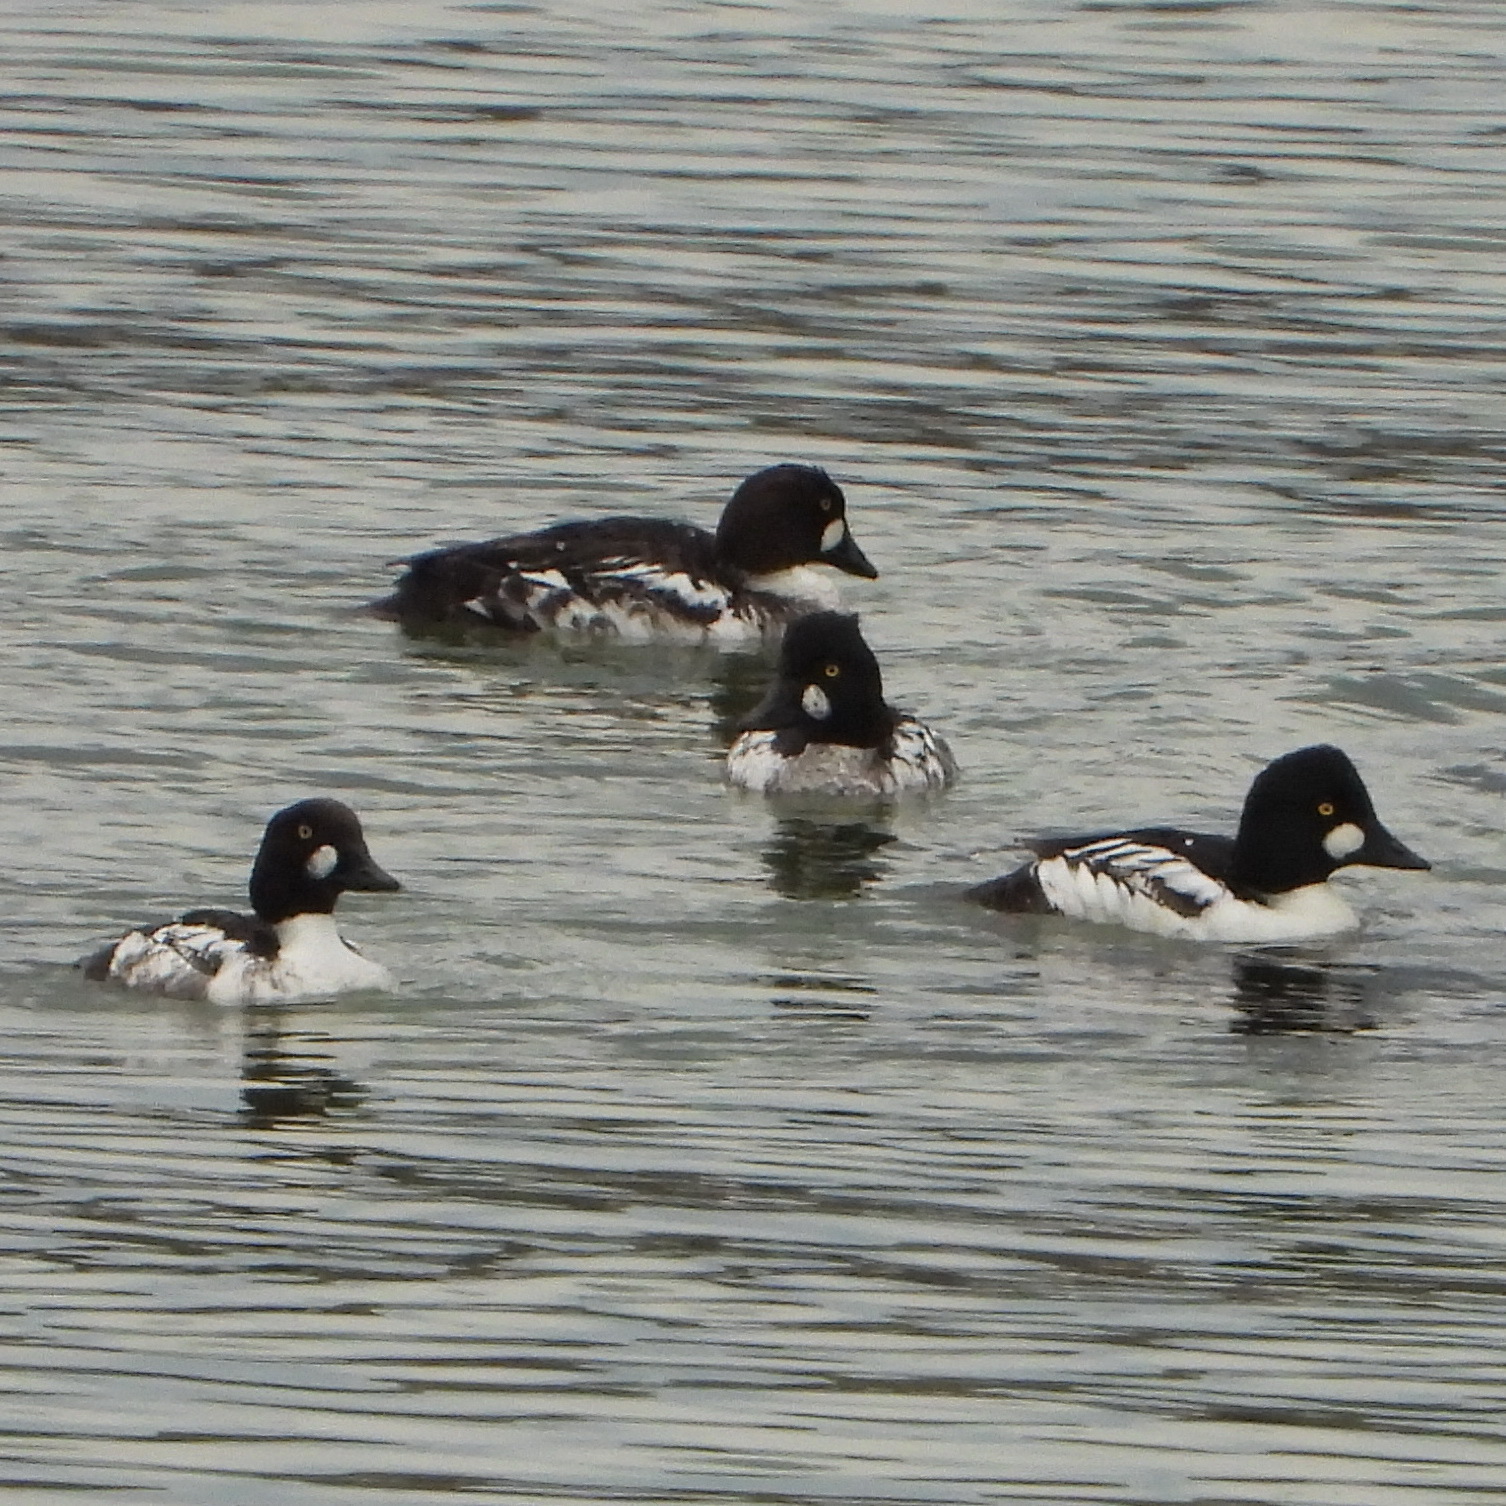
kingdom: Animalia
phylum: Chordata
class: Aves
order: Anseriformes
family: Anatidae
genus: Bucephala
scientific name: Bucephala clangula
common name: Common goldeneye
